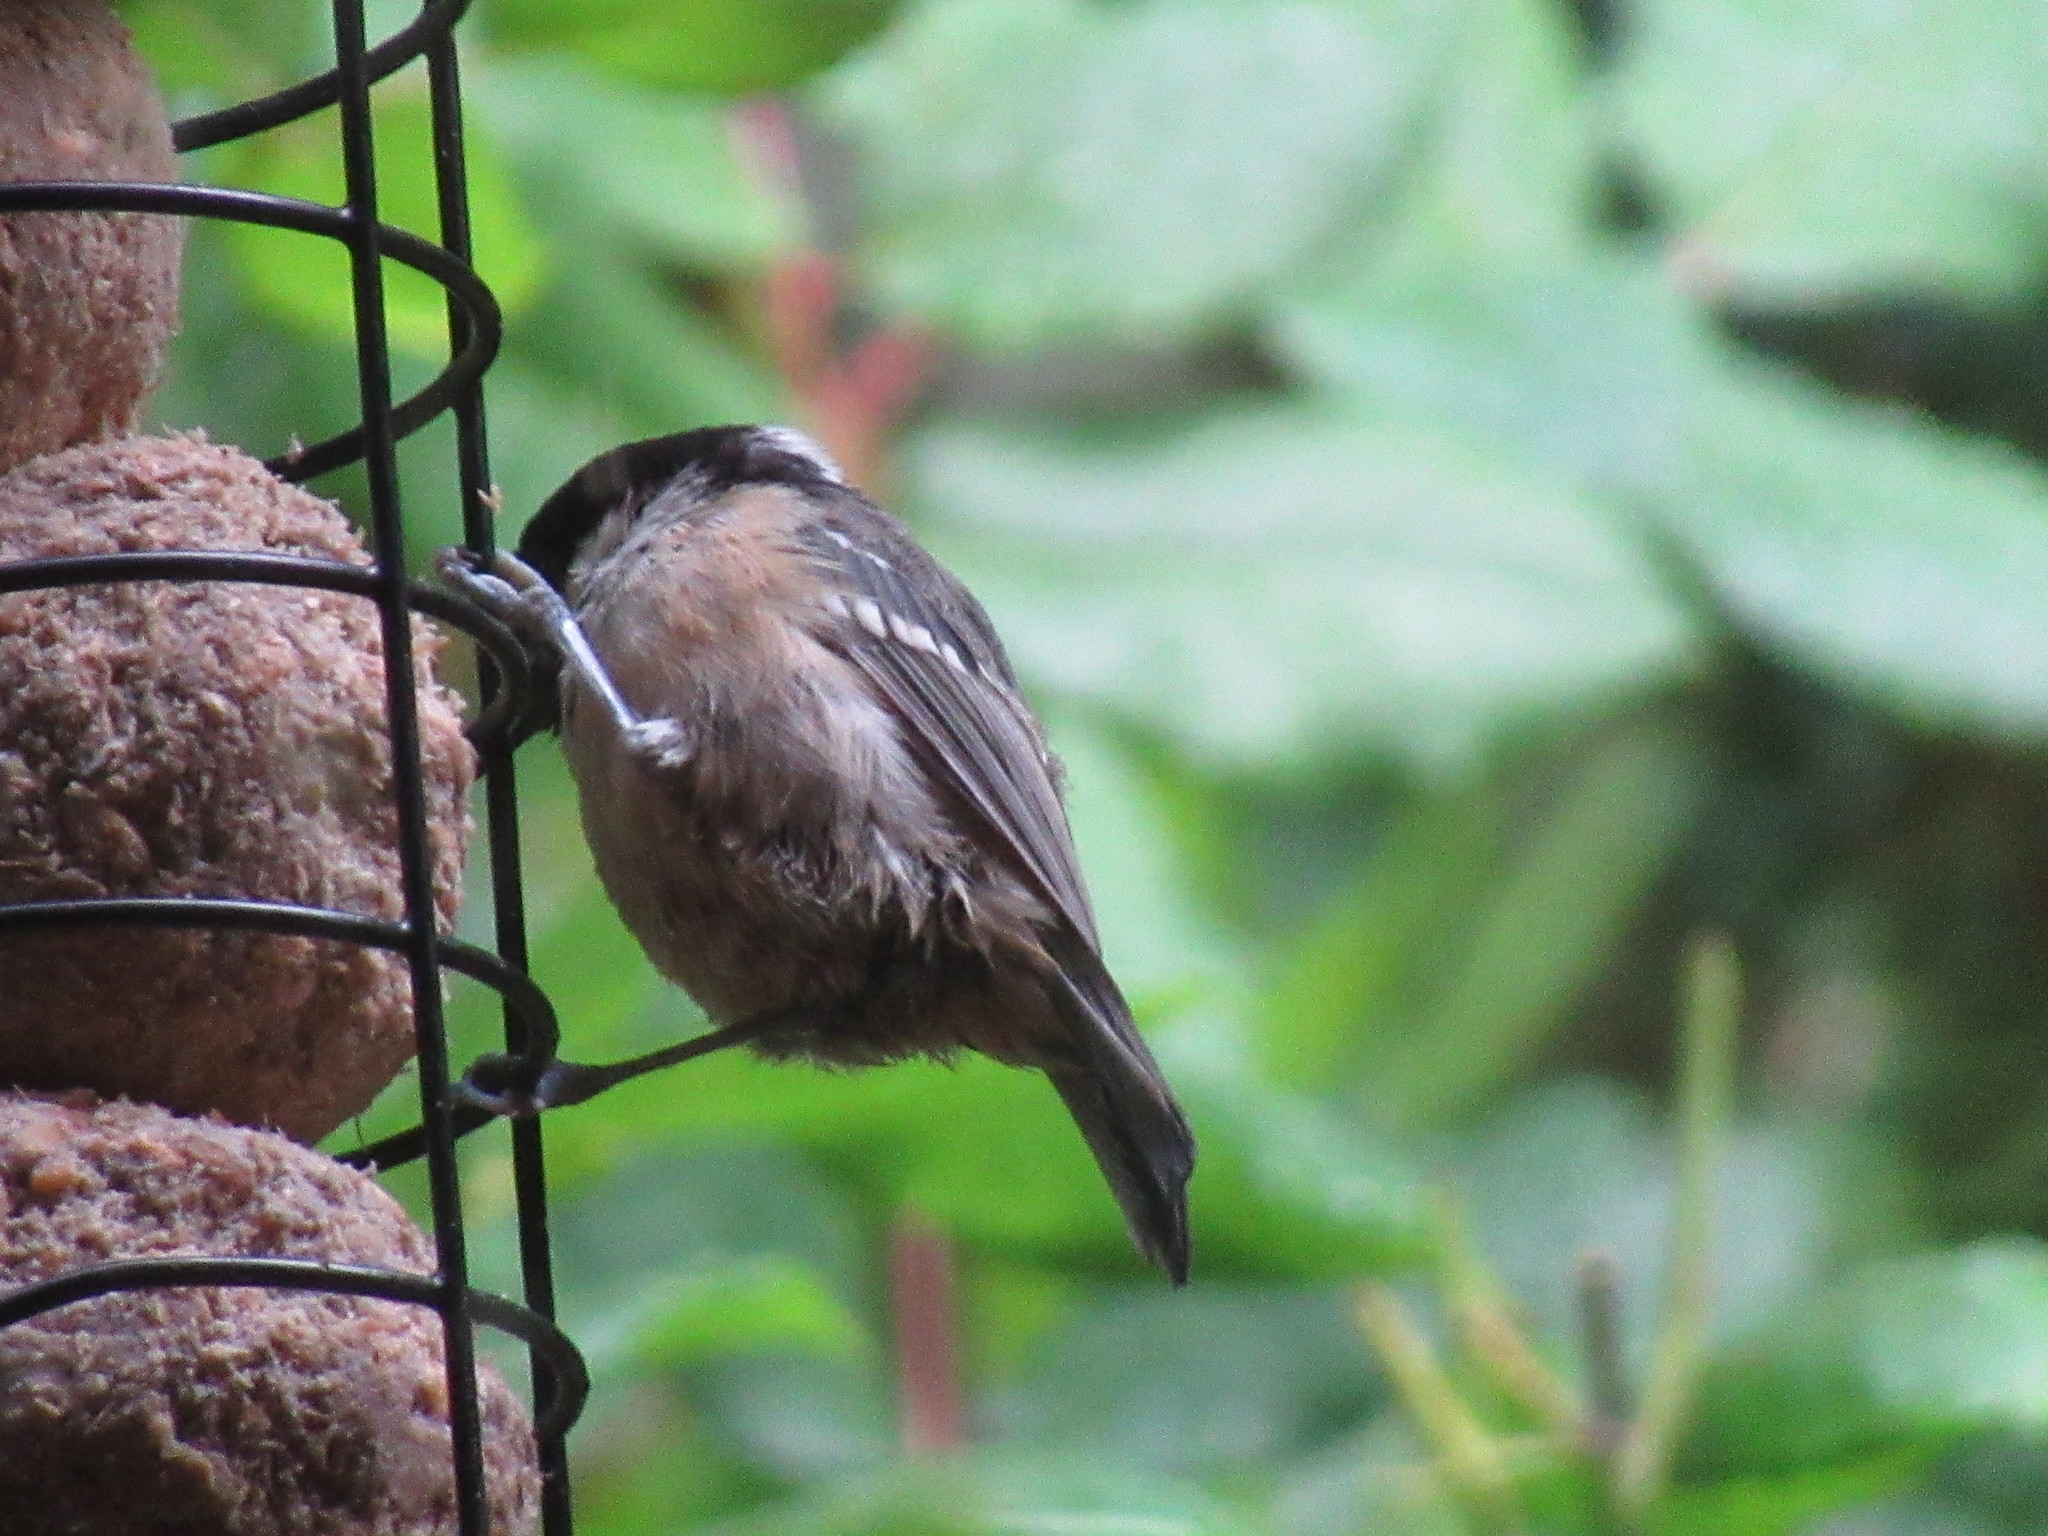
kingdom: Animalia
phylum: Chordata
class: Aves
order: Passeriformes
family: Paridae
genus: Periparus
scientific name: Periparus ater
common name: Coal tit
